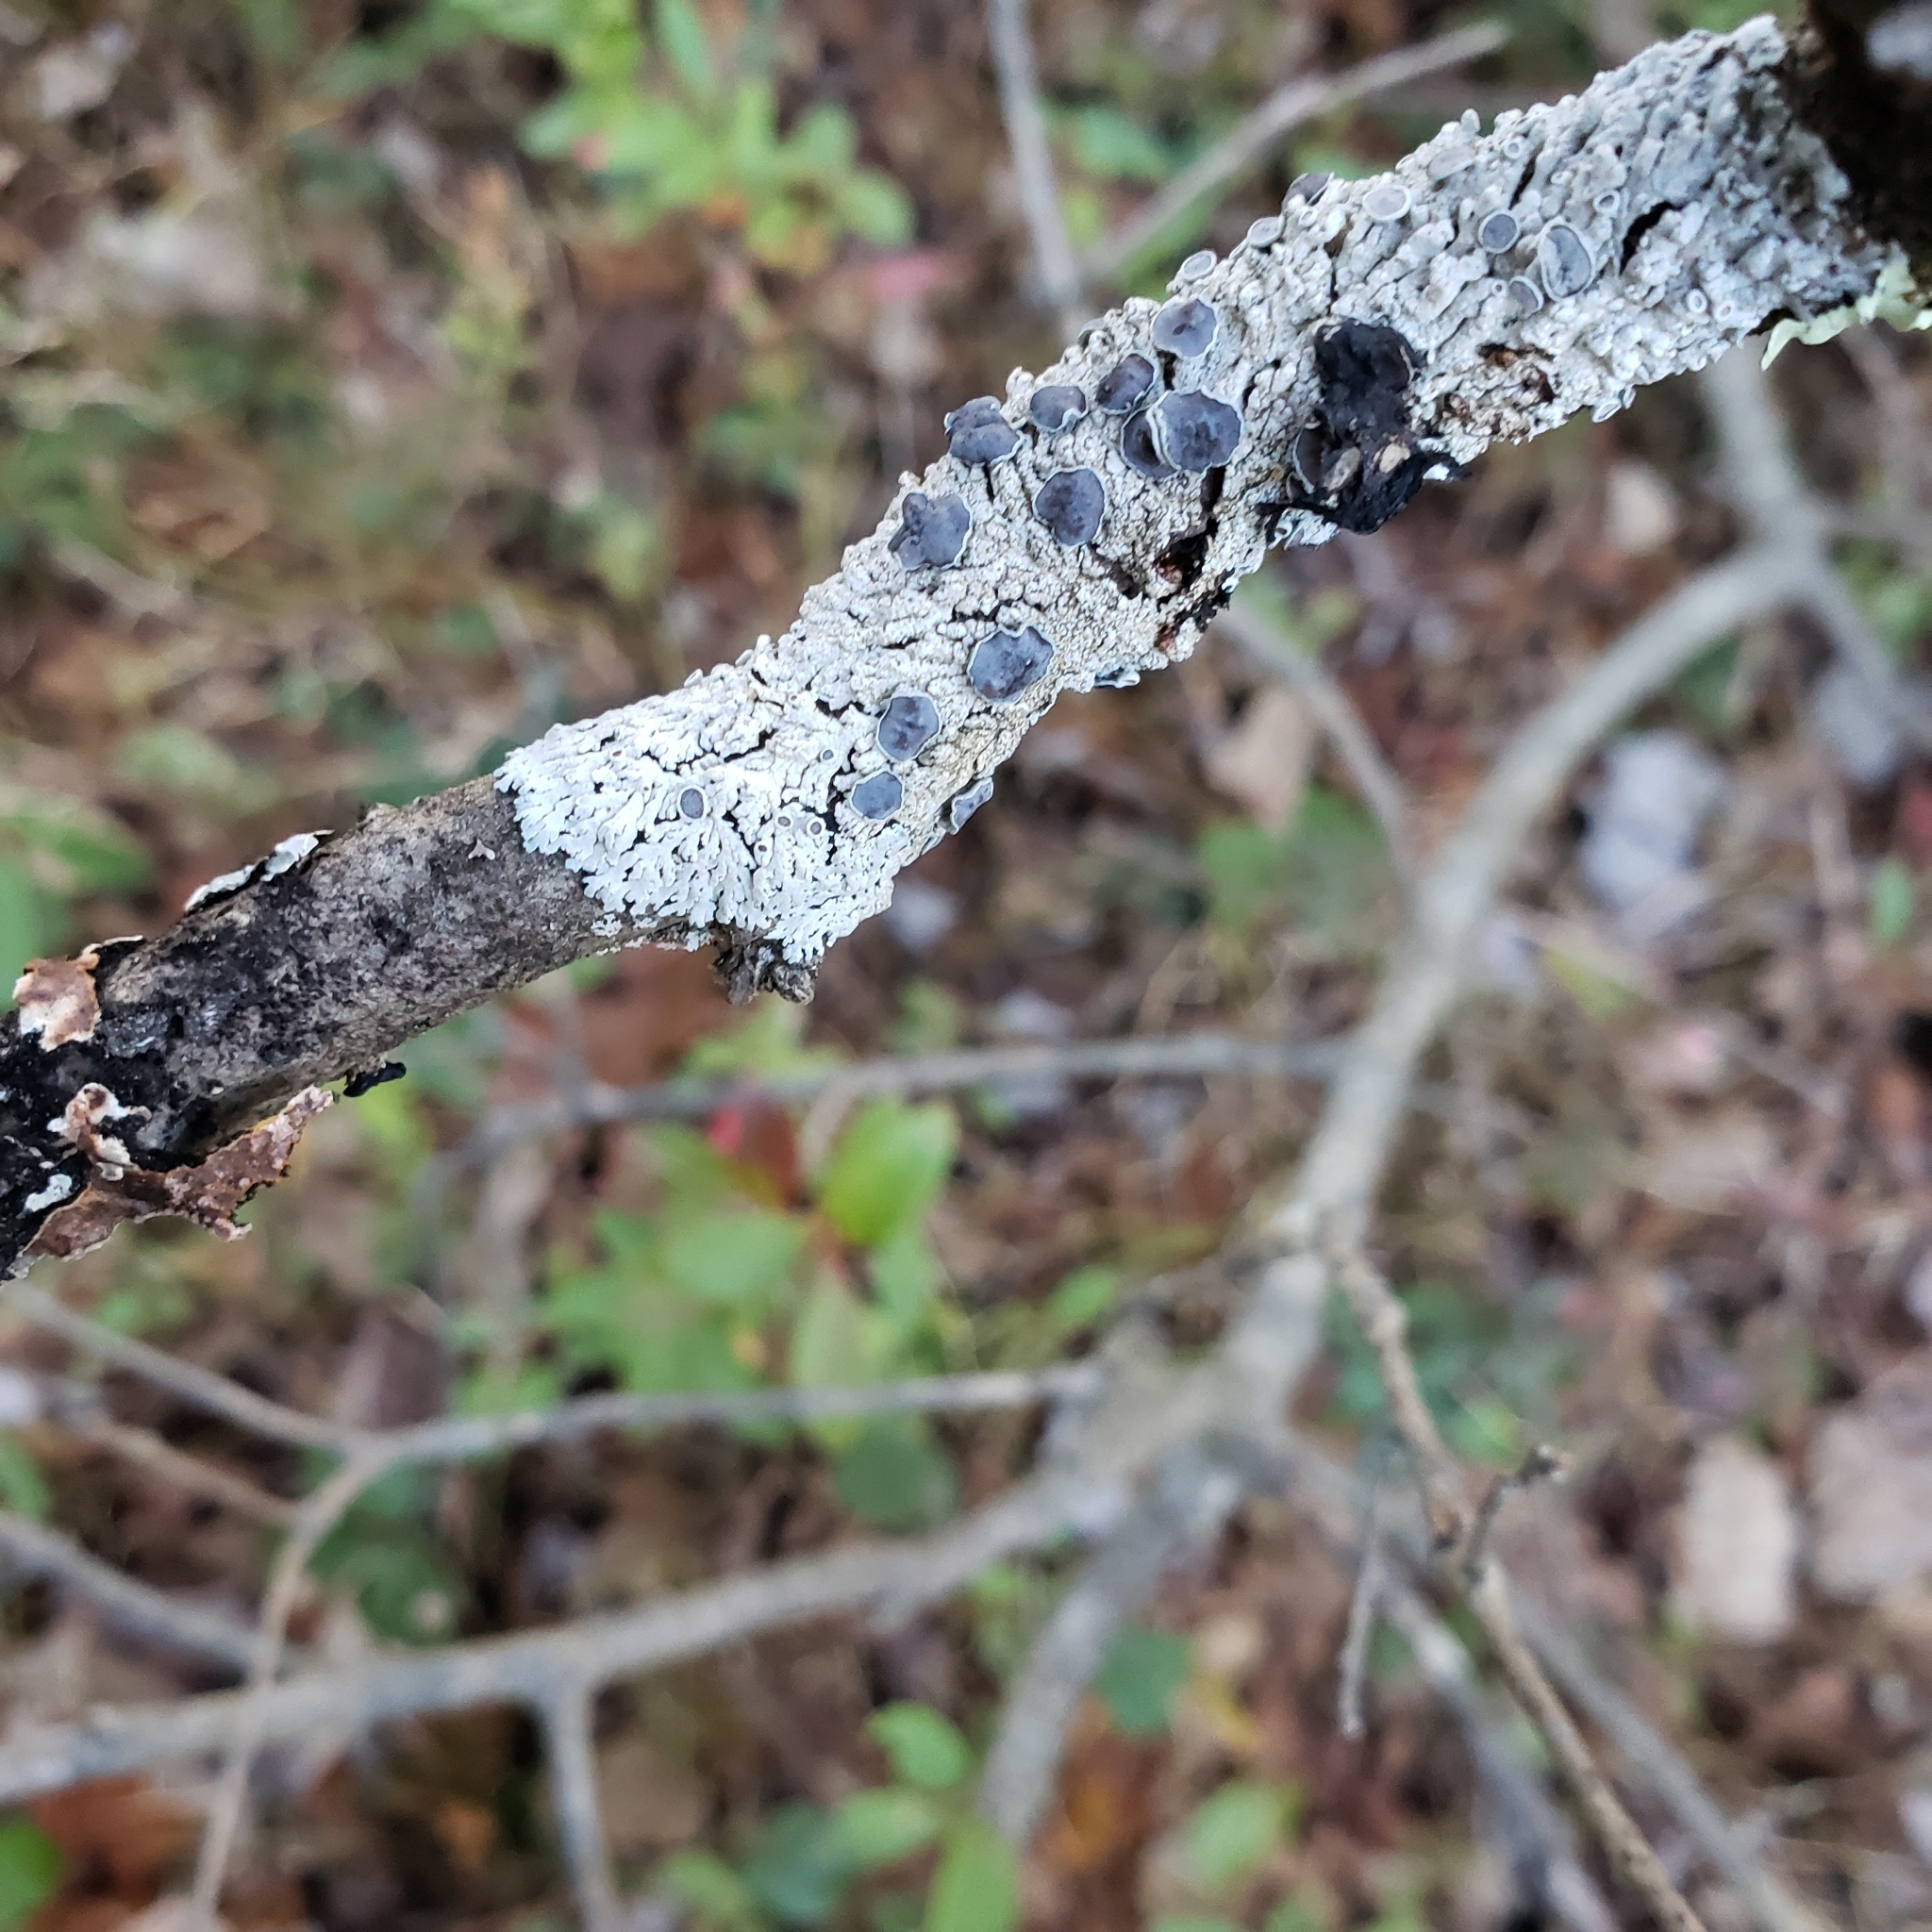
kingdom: Fungi
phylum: Ascomycota
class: Lecanoromycetes
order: Caliciales
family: Physciaceae
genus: Physcia
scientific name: Physcia pumilior
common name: Lesser gray legs
